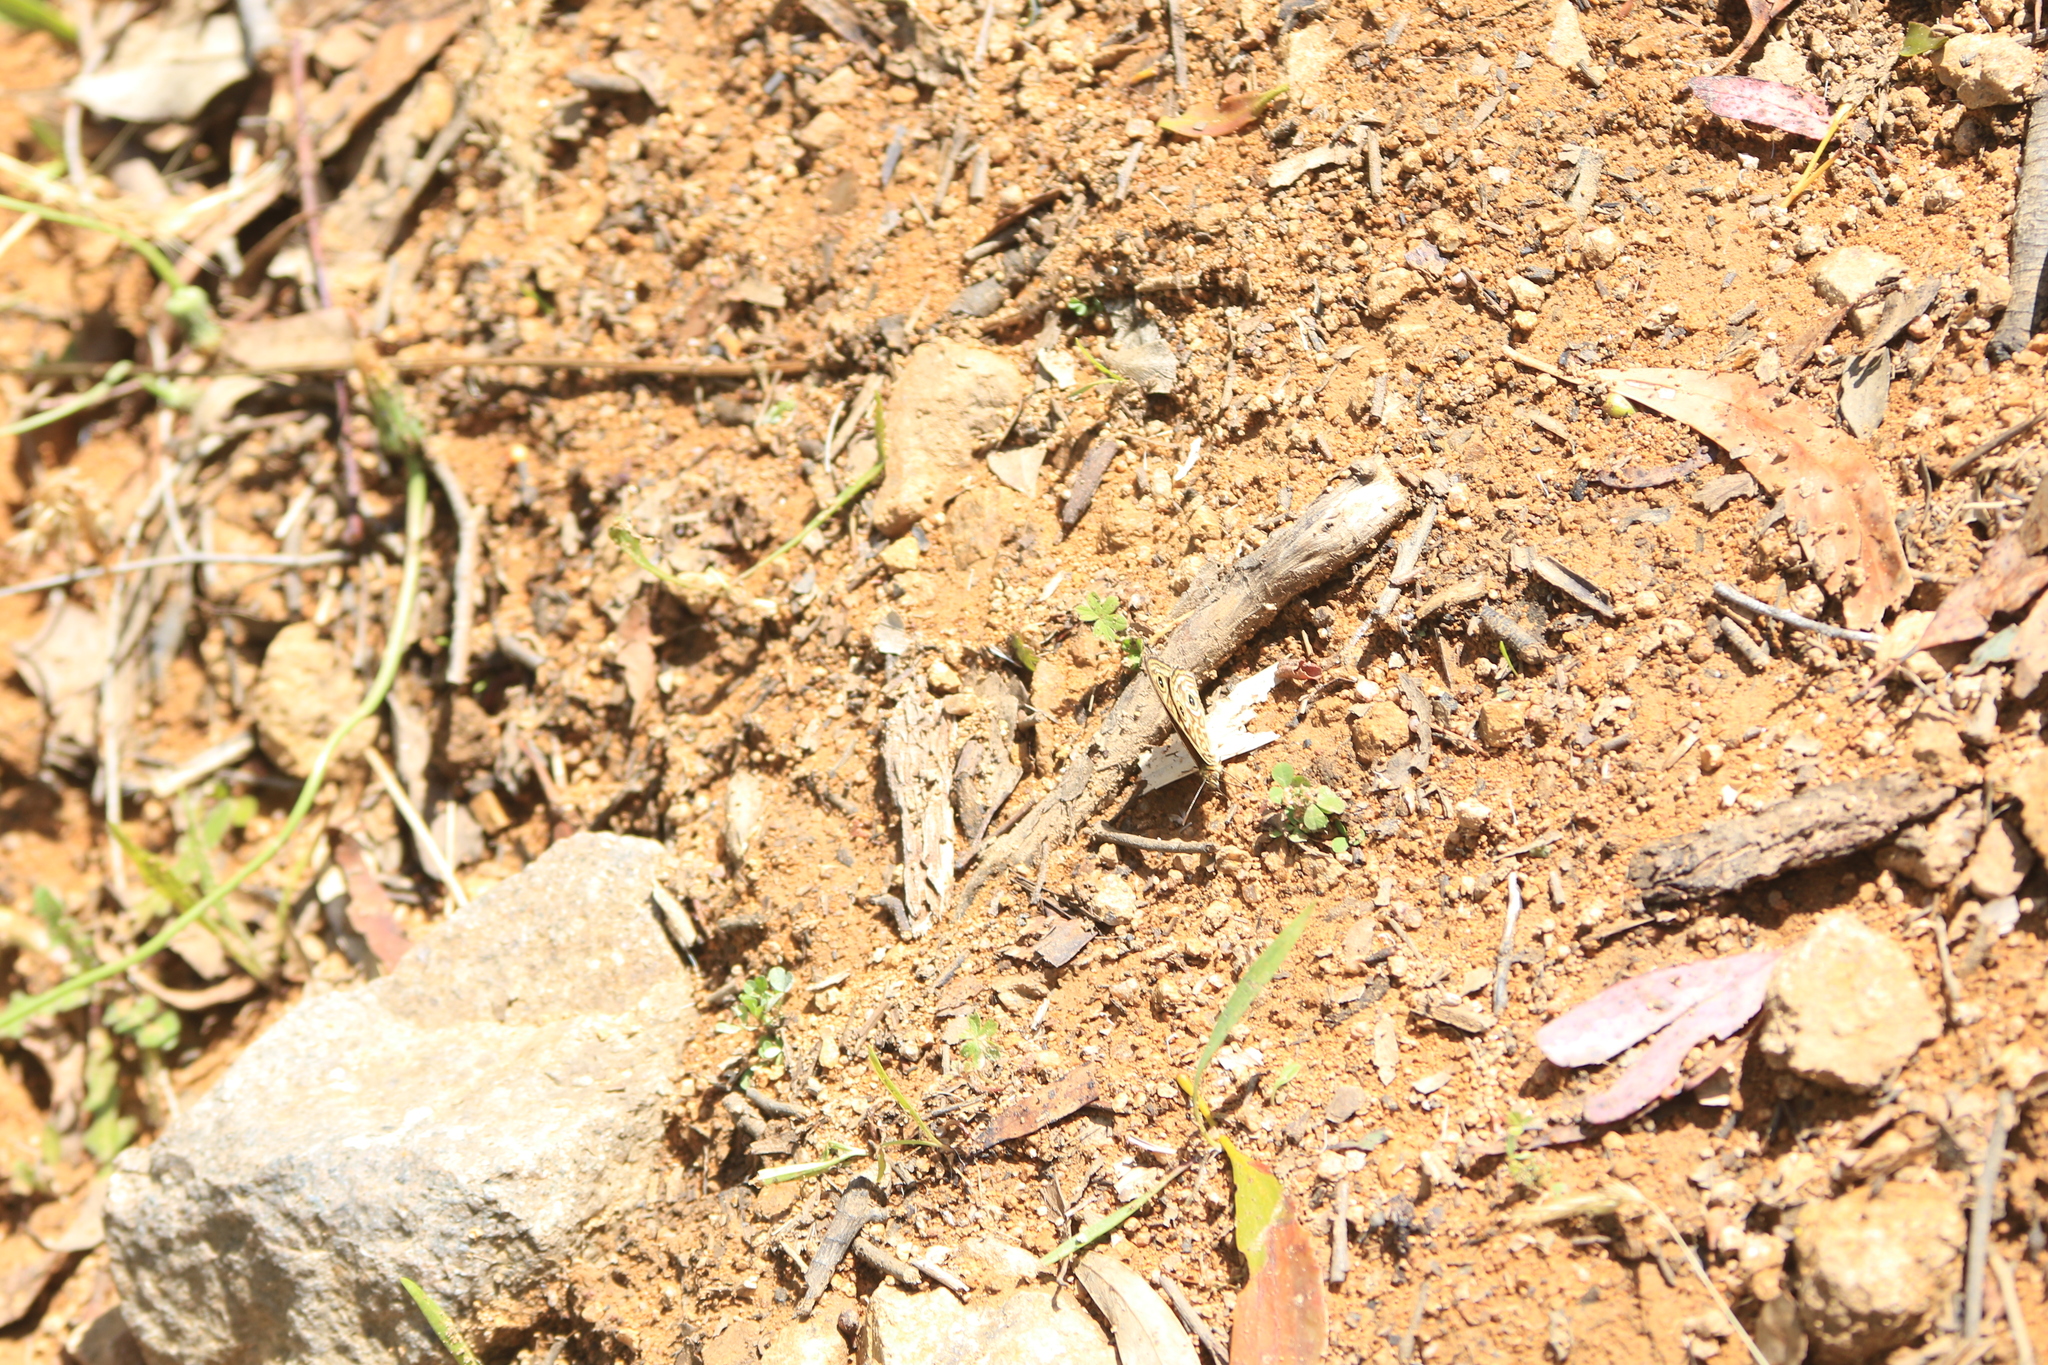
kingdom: Animalia
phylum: Arthropoda
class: Insecta
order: Lepidoptera
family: Nymphalidae
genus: Geitoneura
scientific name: Geitoneura acantha
